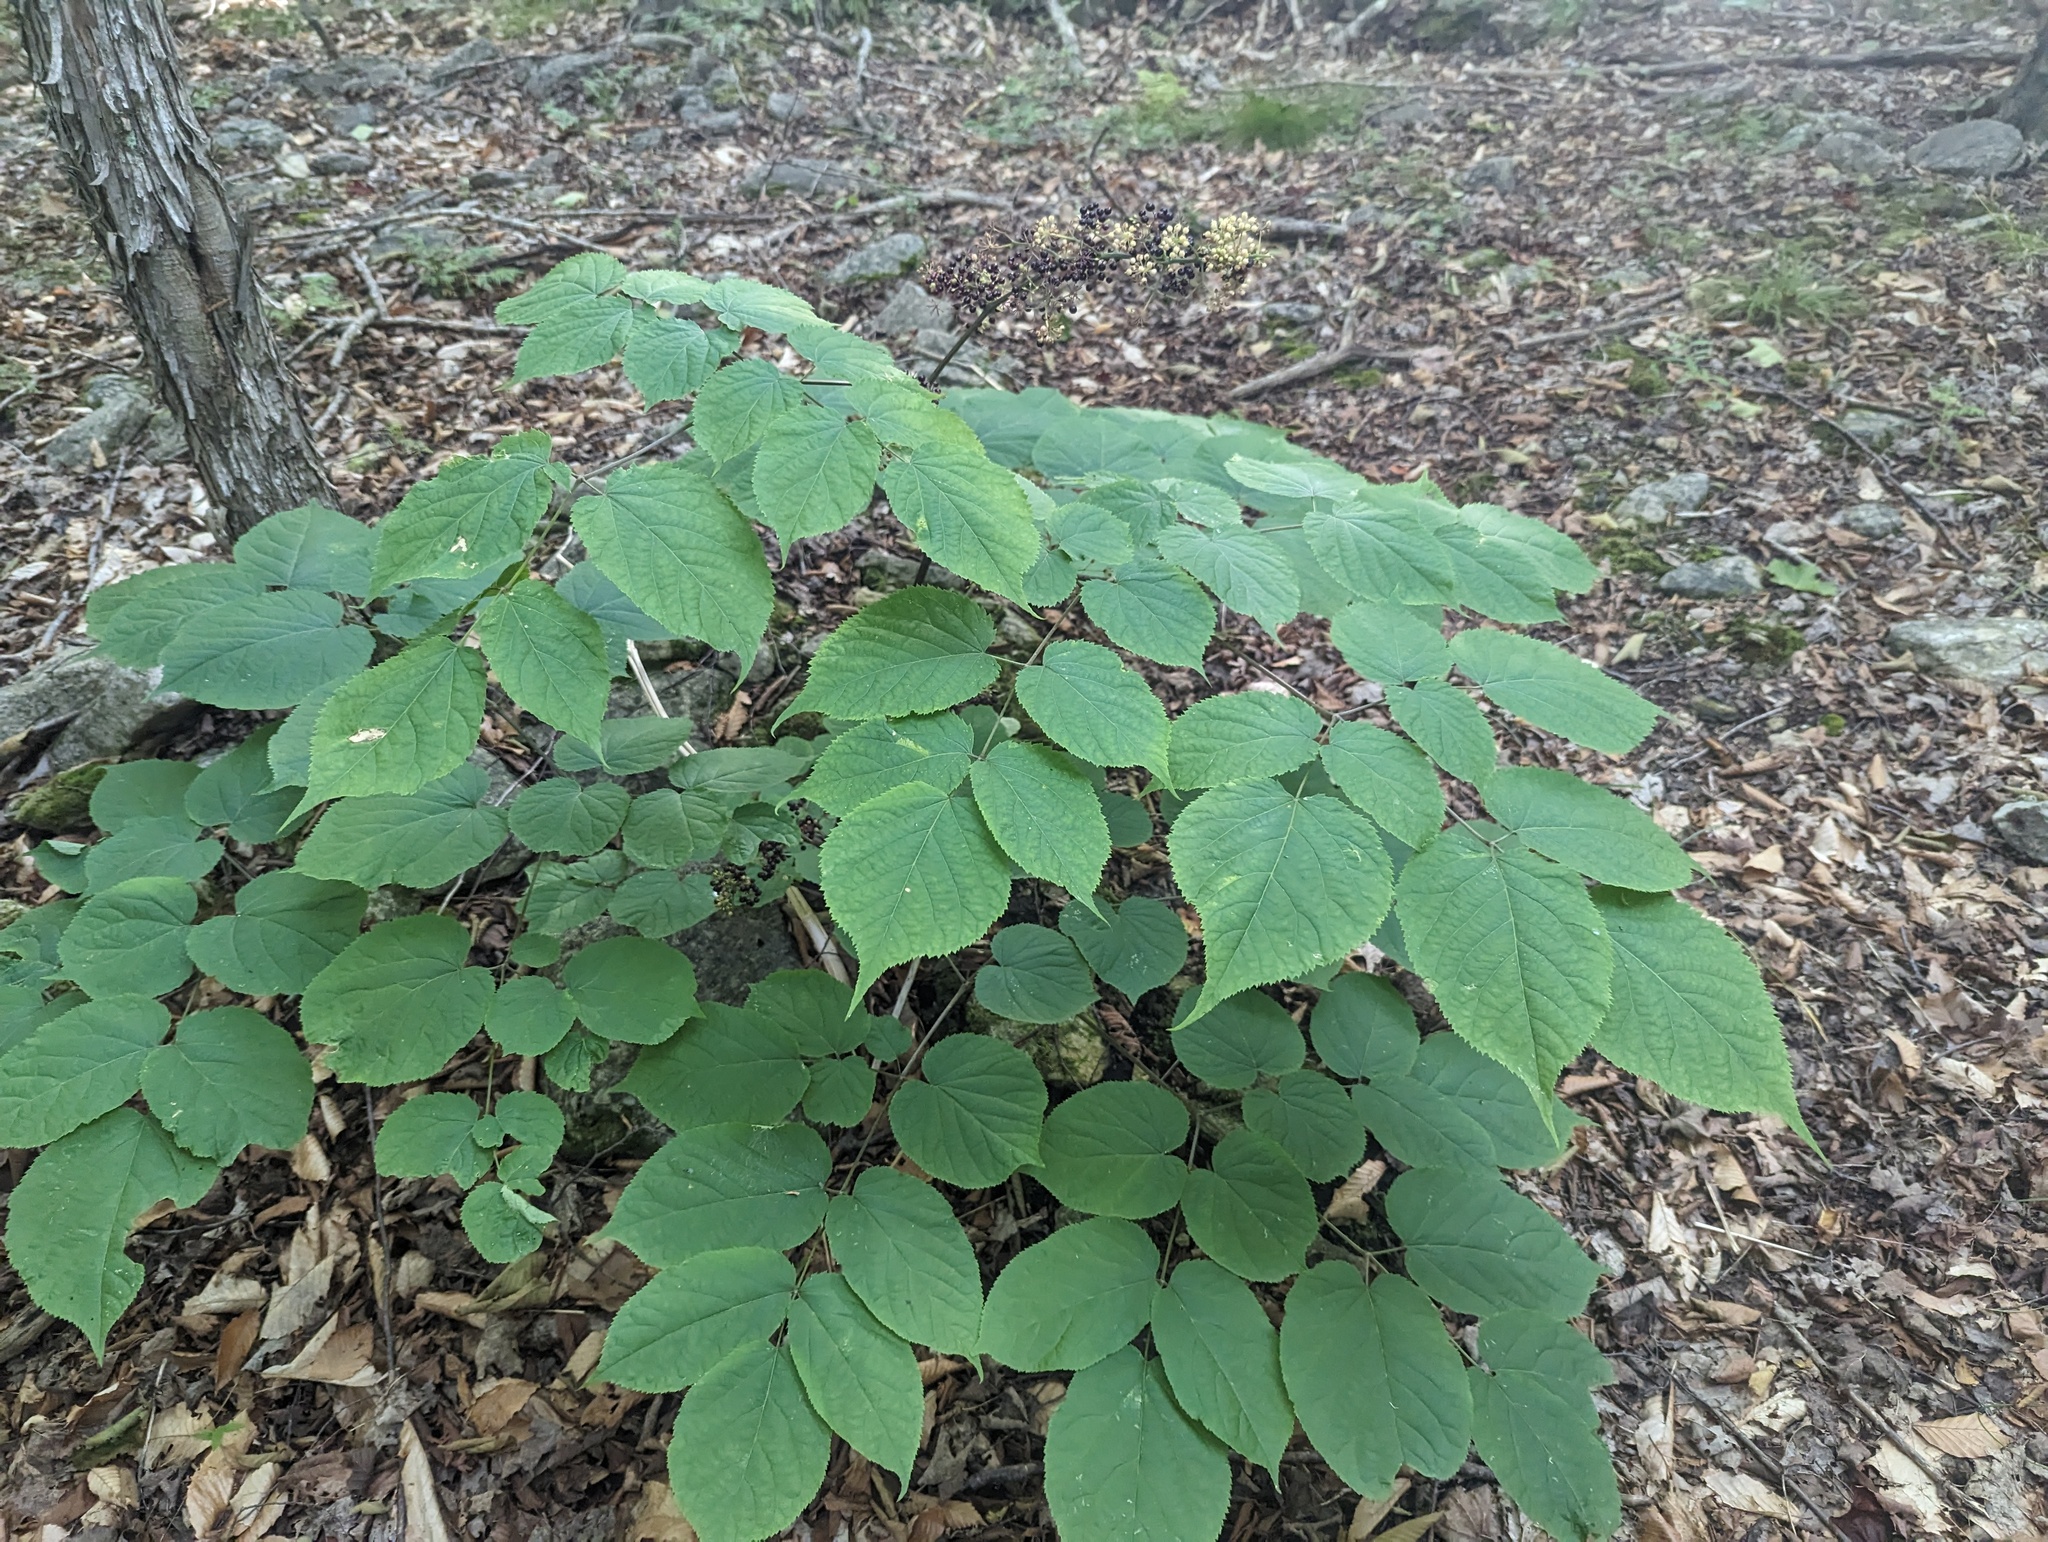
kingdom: Plantae
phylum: Tracheophyta
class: Magnoliopsida
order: Apiales
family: Araliaceae
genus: Aralia
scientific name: Aralia racemosa
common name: American-spikenard
